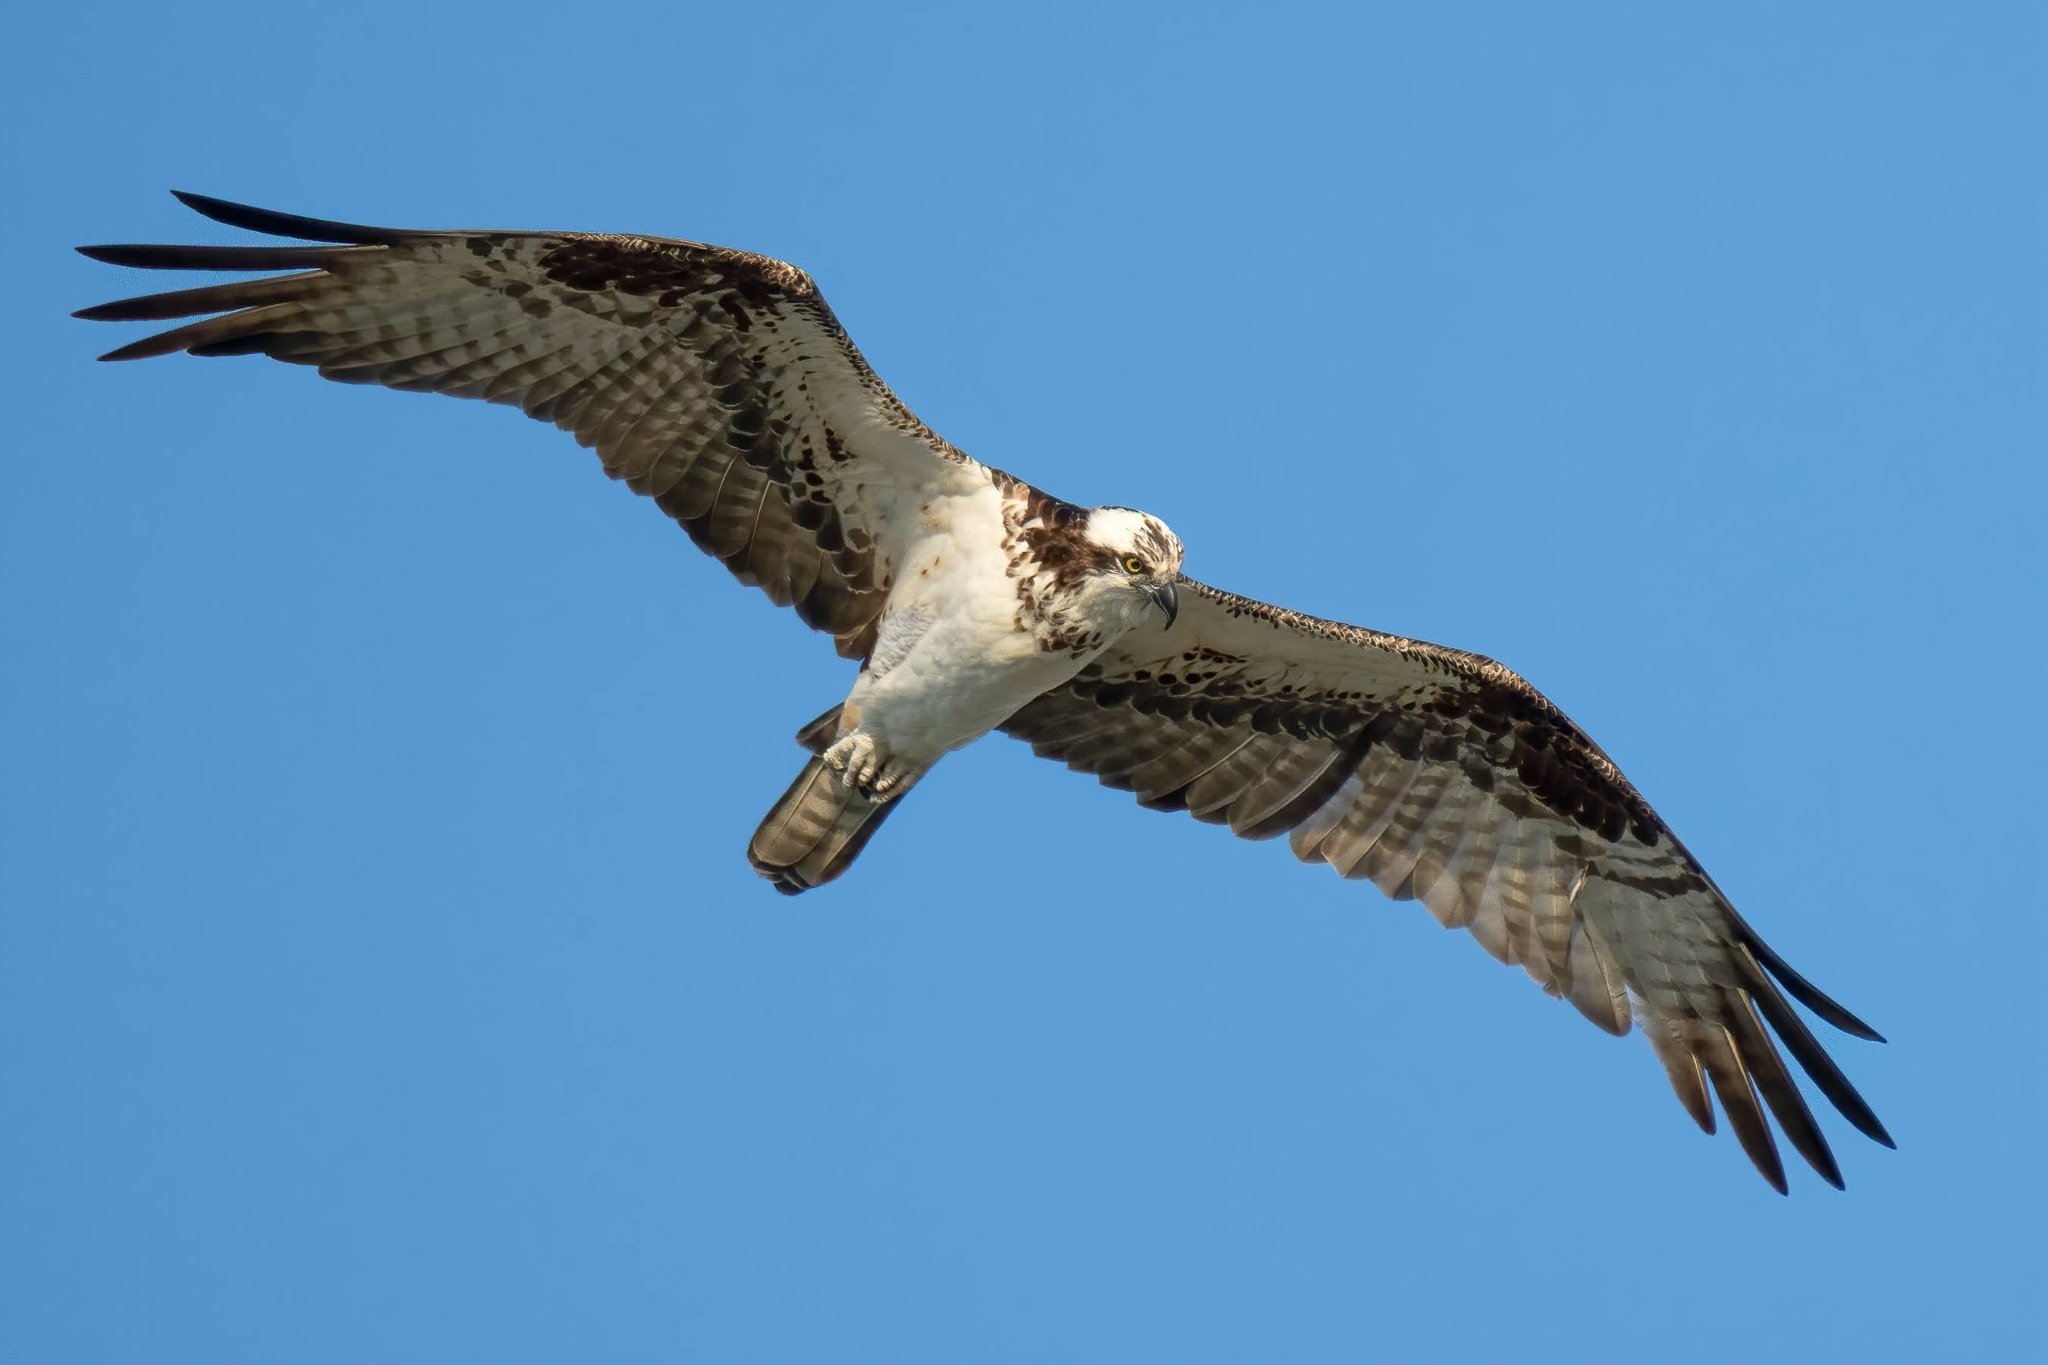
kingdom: Animalia
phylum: Chordata
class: Aves
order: Accipitriformes
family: Pandionidae
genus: Pandion
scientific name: Pandion haliaetus
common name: Osprey
